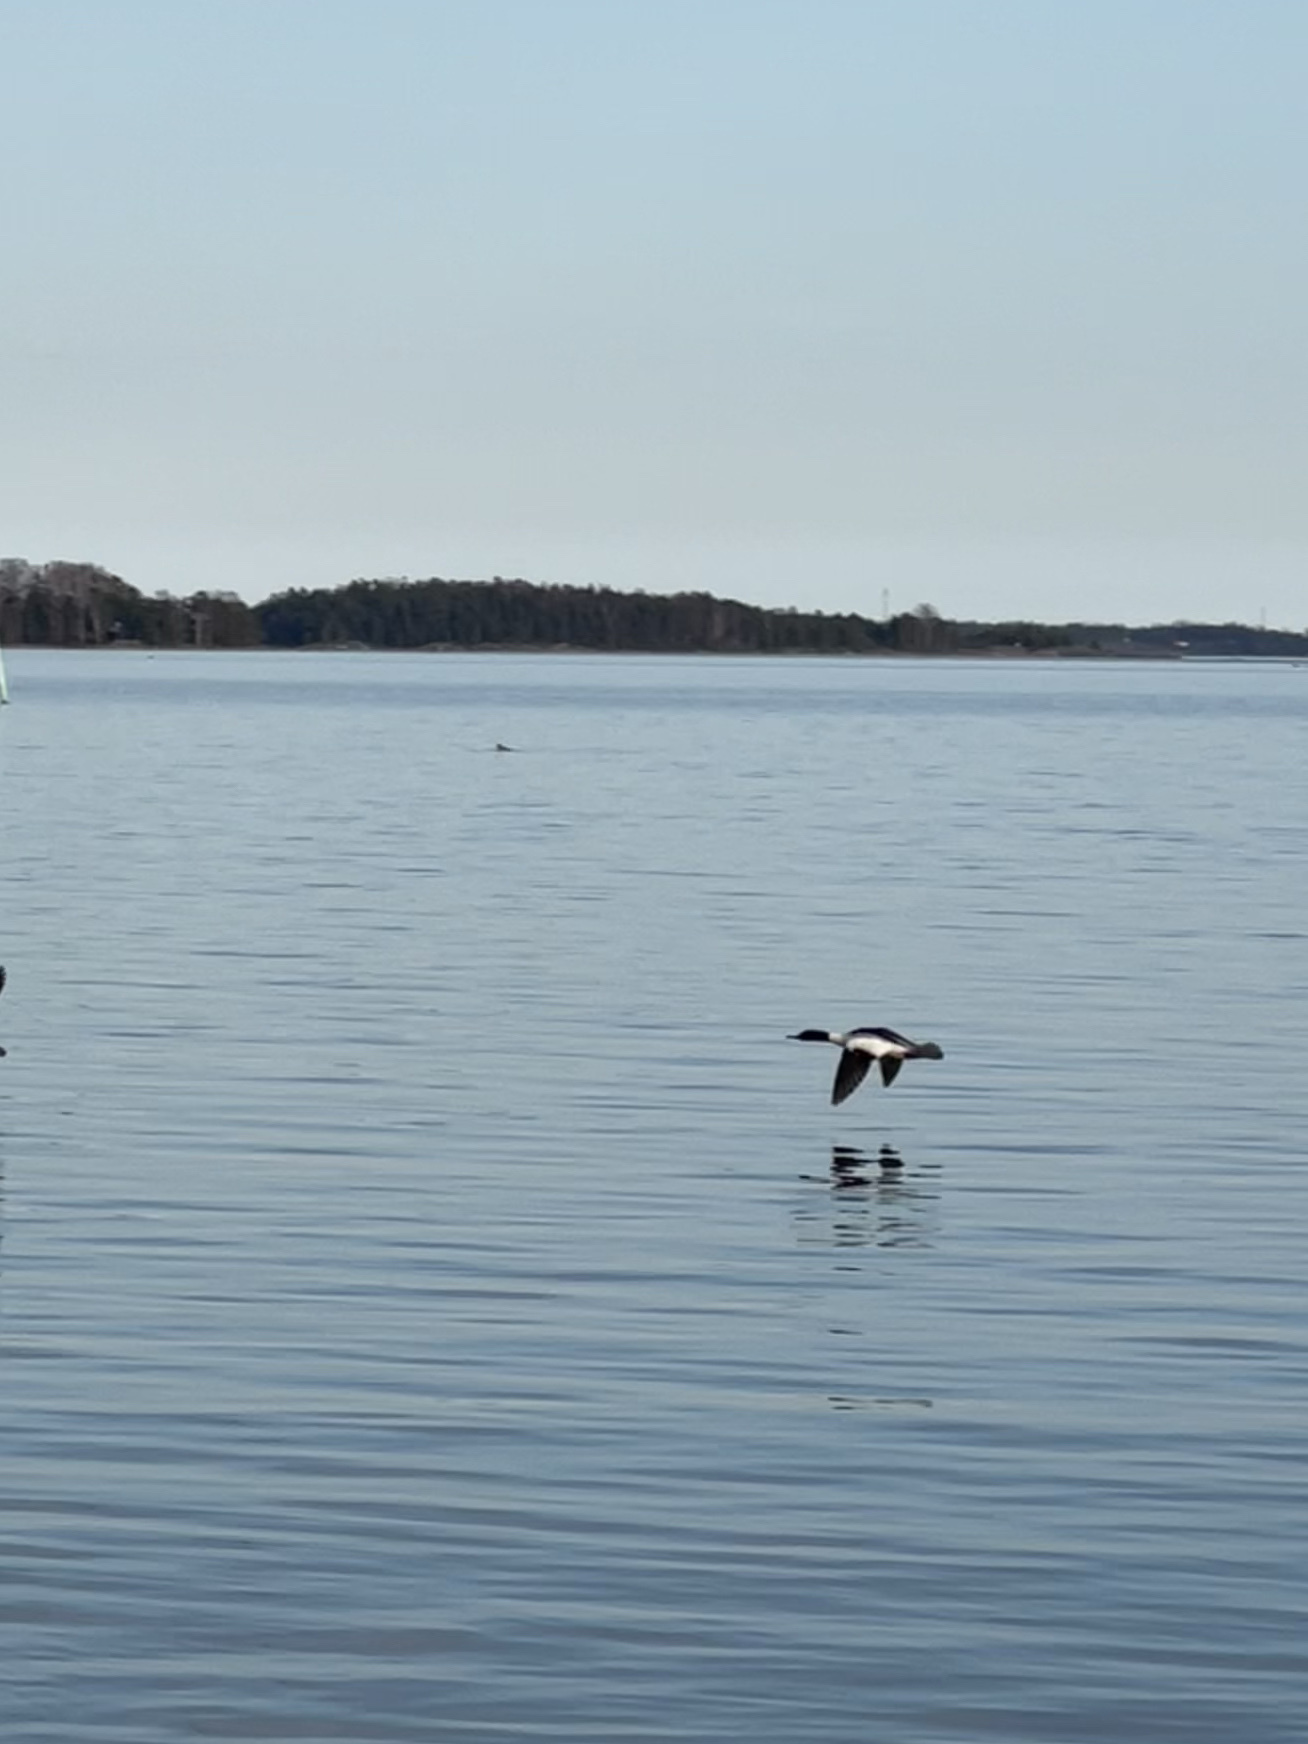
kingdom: Animalia
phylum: Chordata
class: Aves
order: Anseriformes
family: Anatidae
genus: Mergus
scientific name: Mergus merganser
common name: Common merganser
